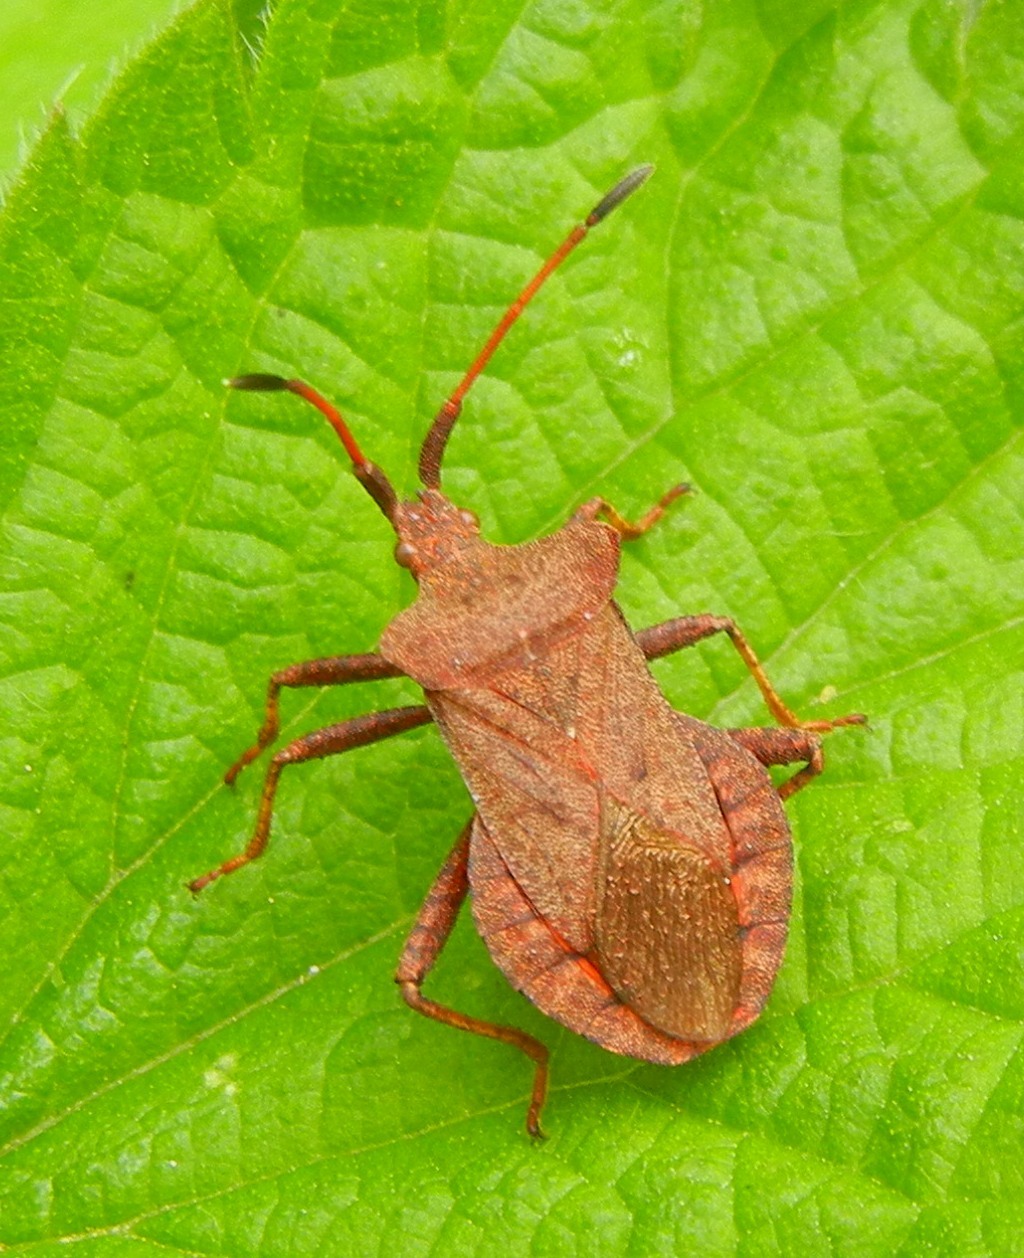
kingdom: Animalia
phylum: Arthropoda
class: Insecta
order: Hemiptera
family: Coreidae
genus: Coreus
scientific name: Coreus marginatus
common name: Dock bug
